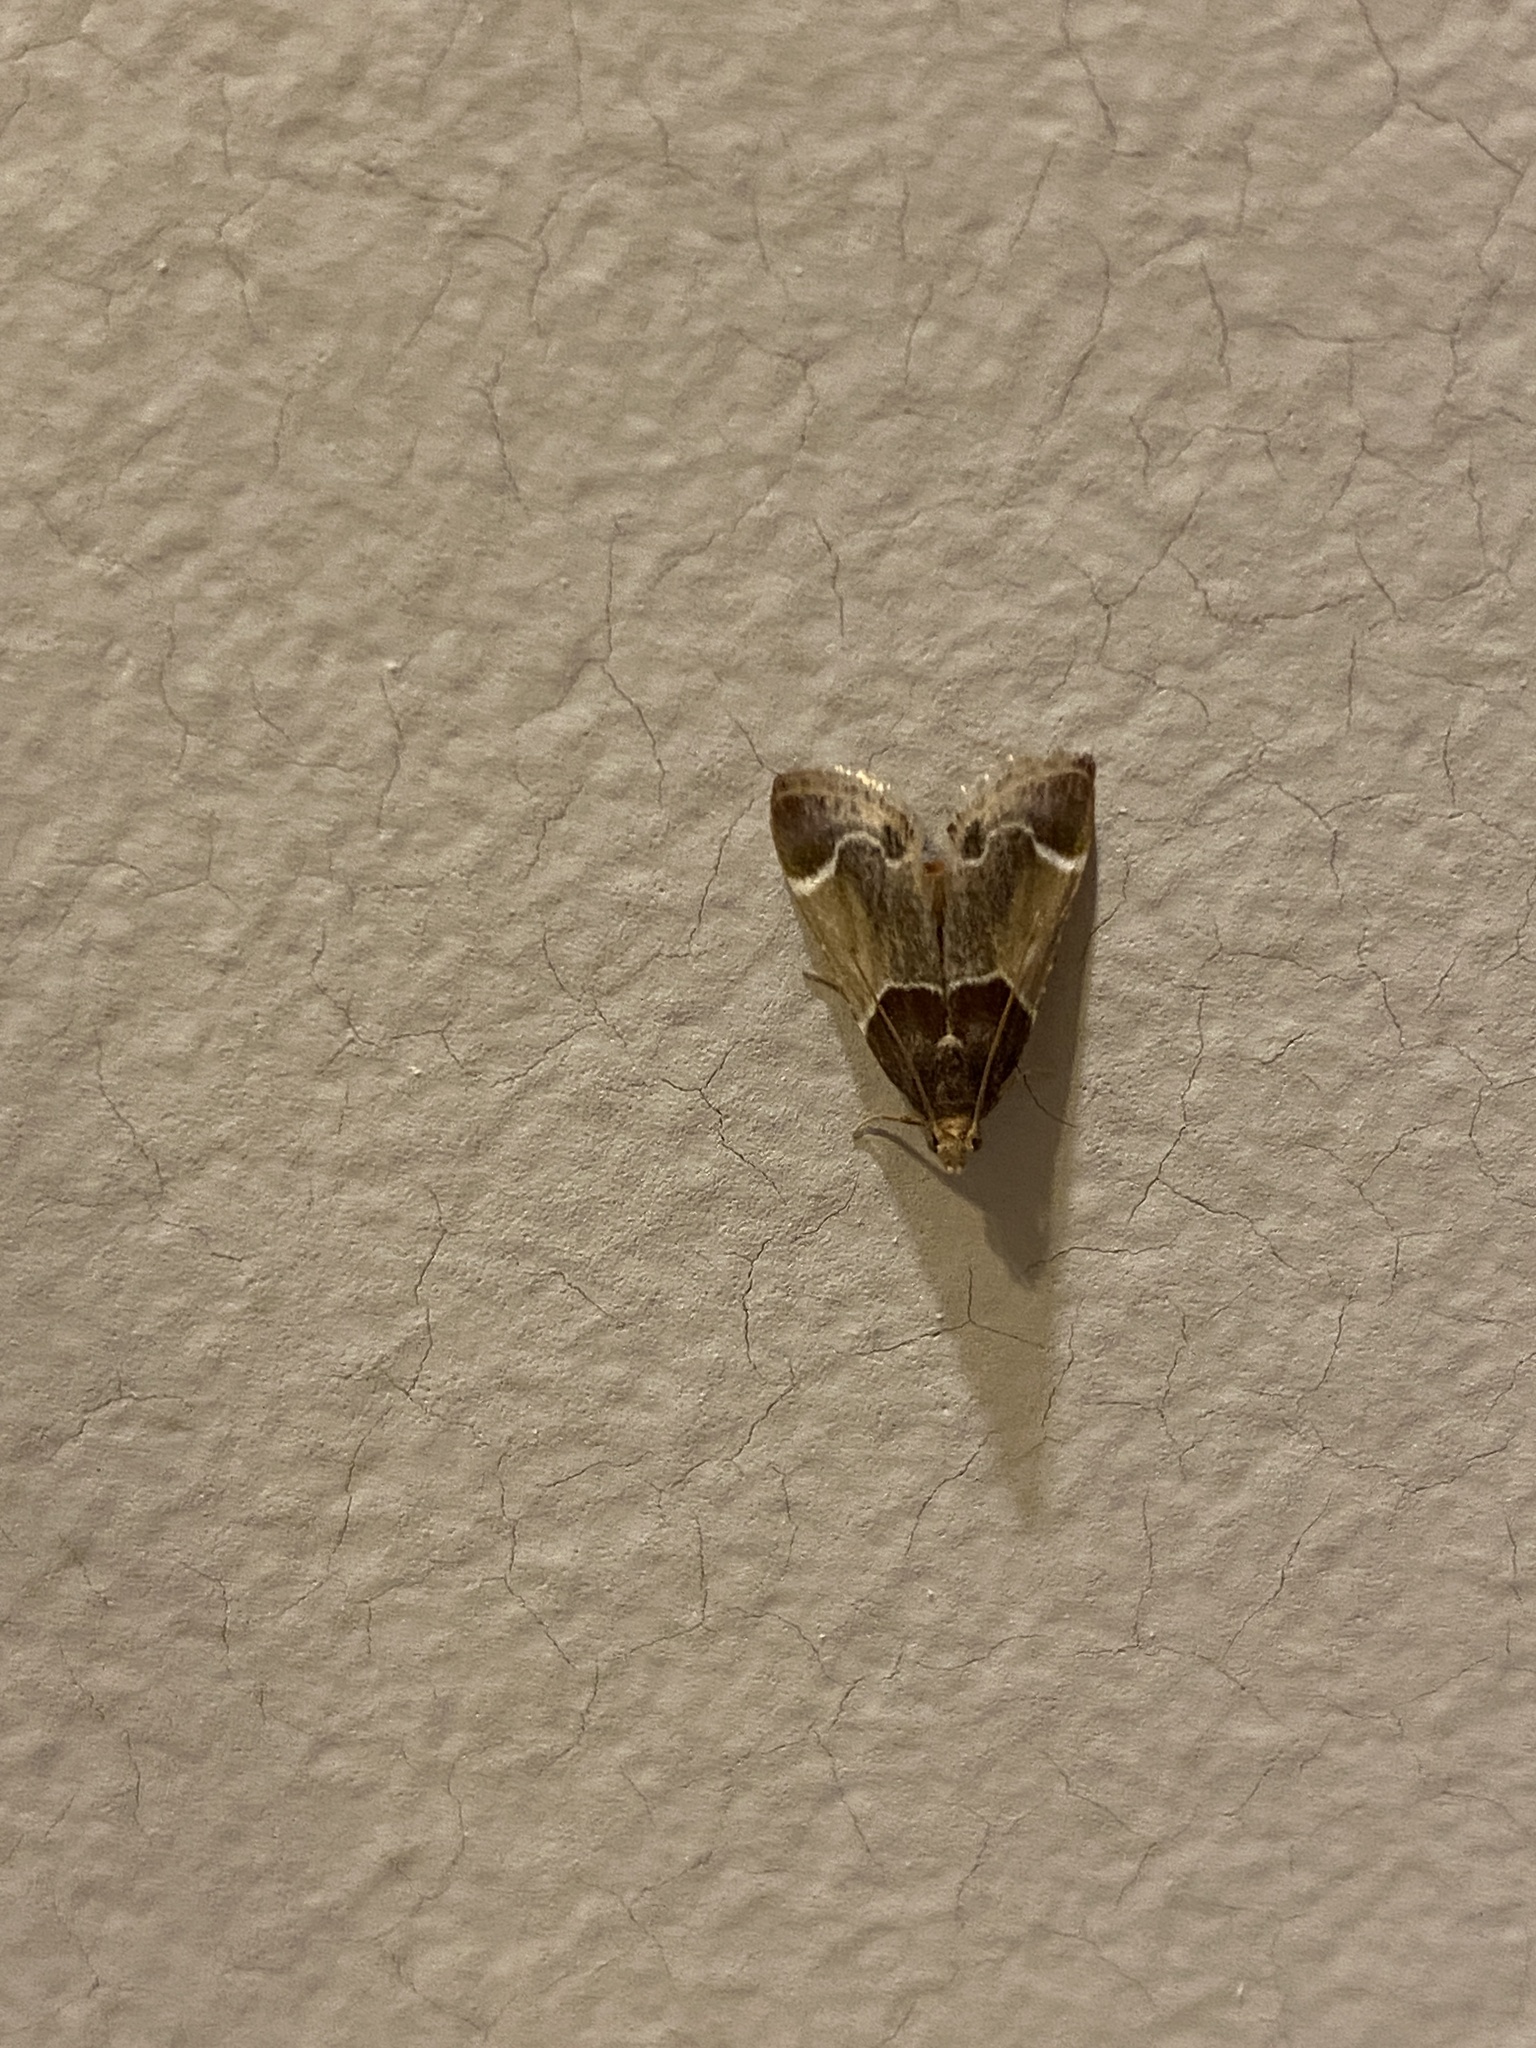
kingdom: Animalia
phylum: Arthropoda
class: Insecta
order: Lepidoptera
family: Pyralidae
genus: Pyralis
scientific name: Pyralis farinalis
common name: Meal moth
